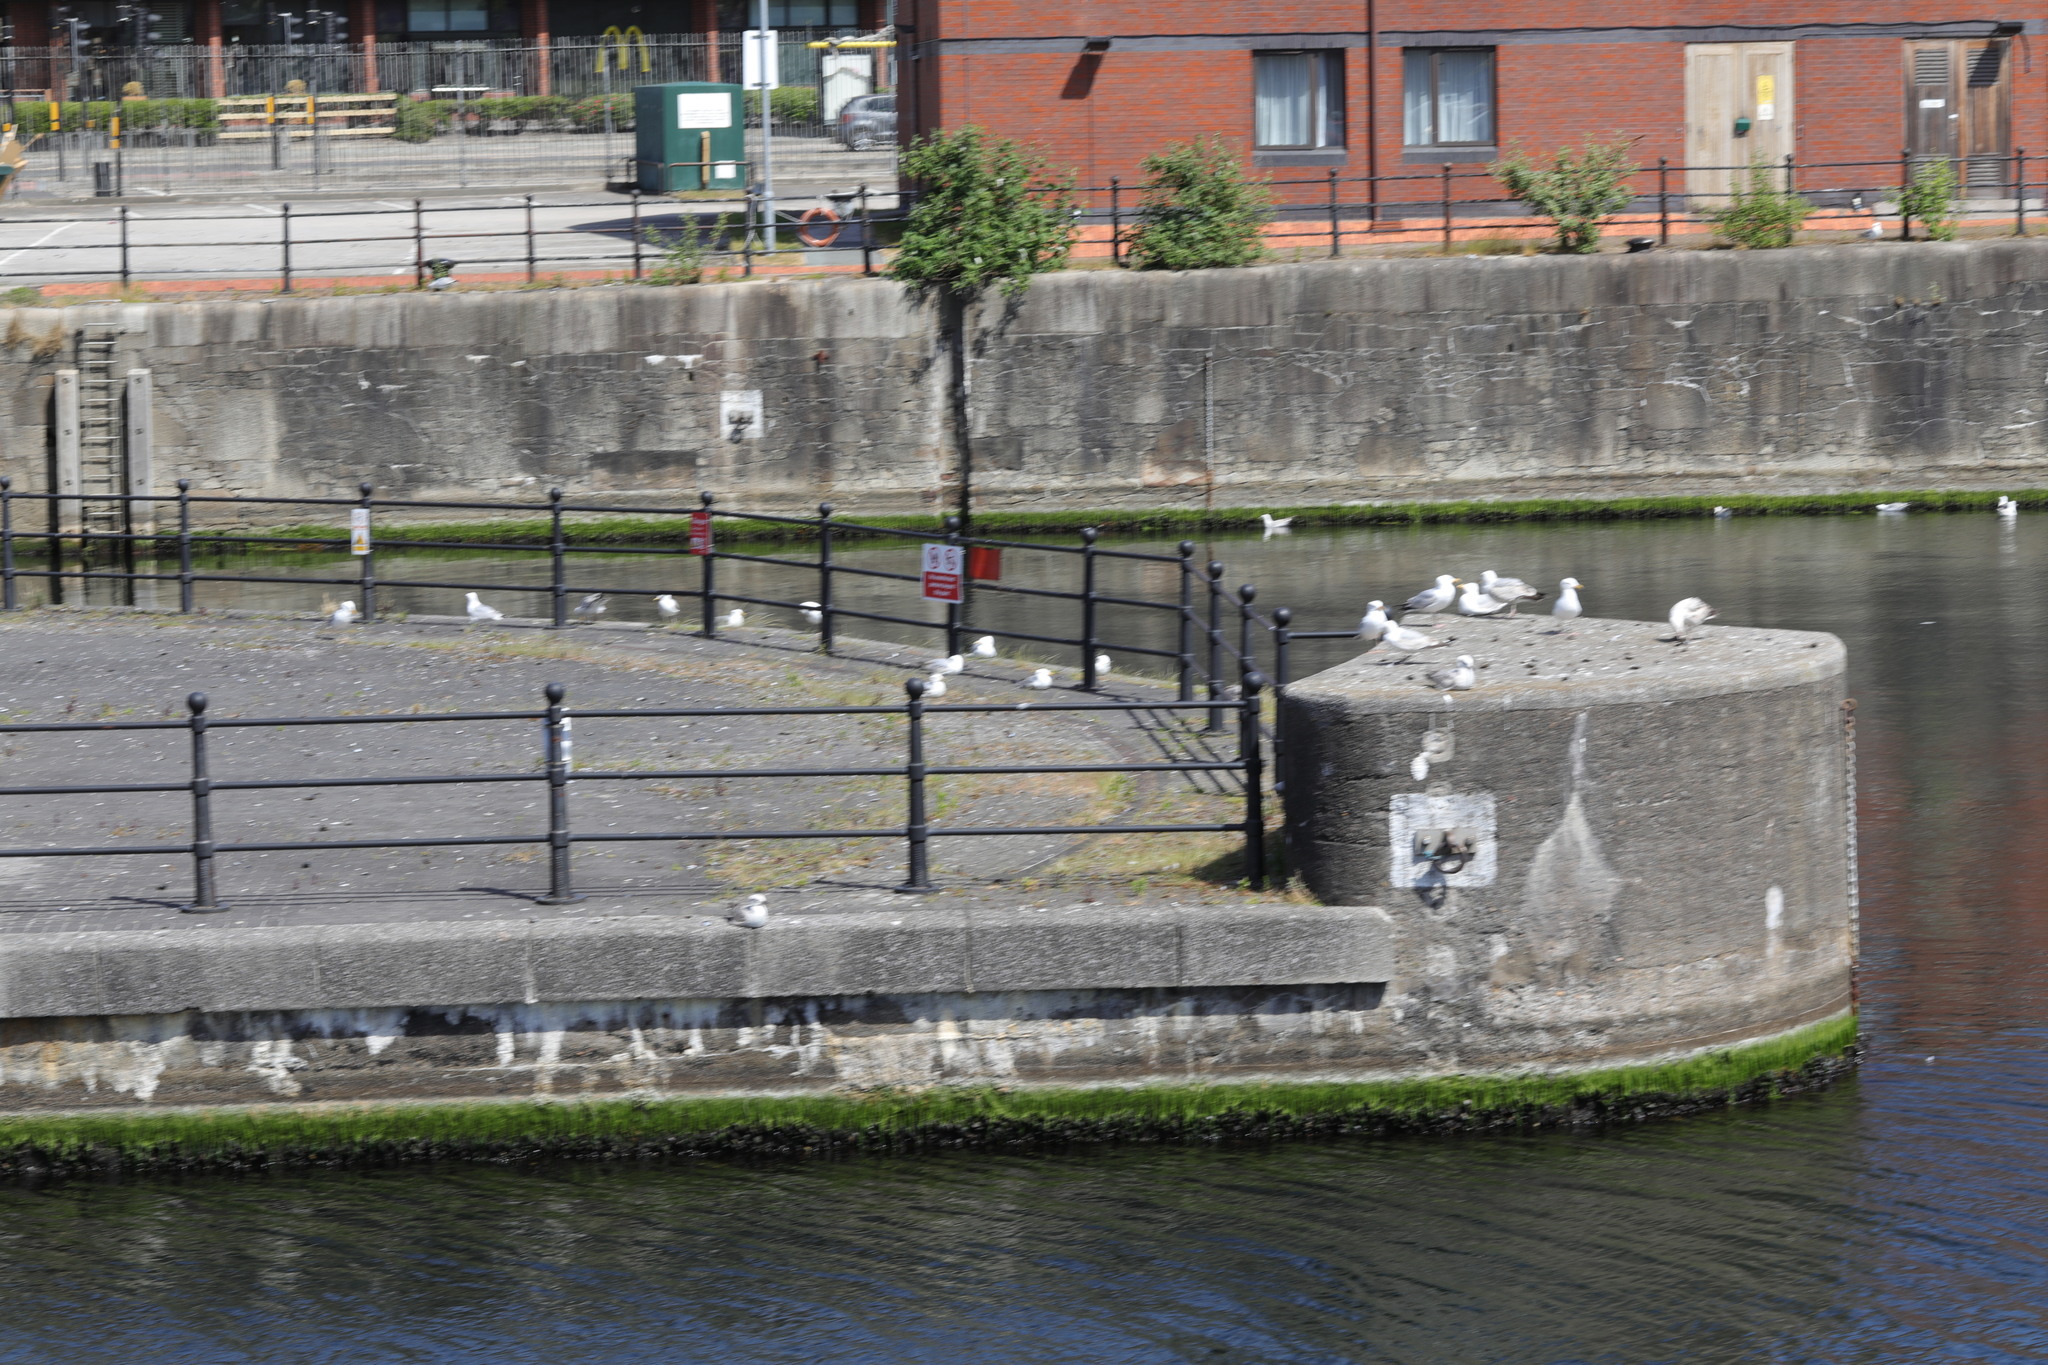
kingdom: Animalia
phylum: Chordata
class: Aves
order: Charadriiformes
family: Laridae
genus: Larus
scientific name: Larus argentatus
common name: Herring gull
